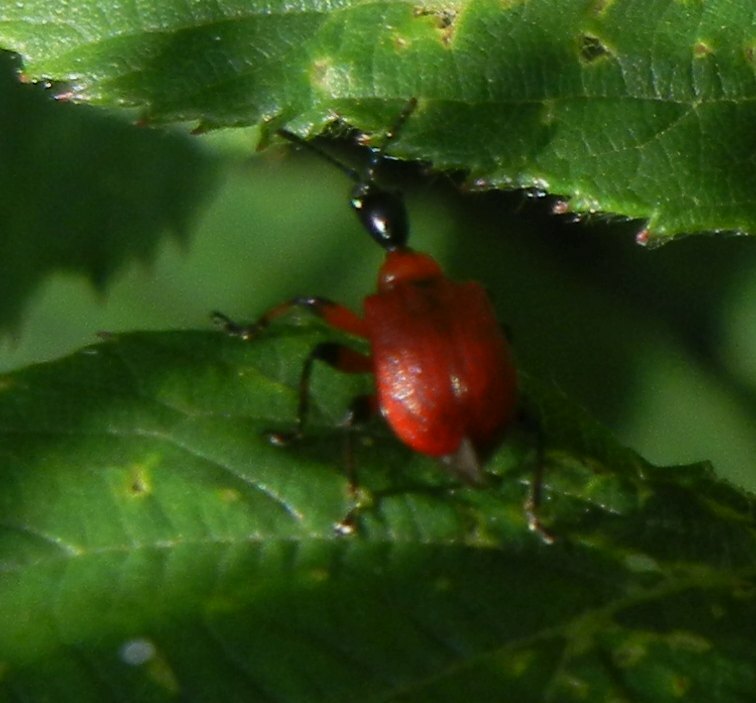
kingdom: Animalia
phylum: Arthropoda
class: Insecta
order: Coleoptera
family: Attelabidae
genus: Apoderus
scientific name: Apoderus coryli
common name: Hazel leaf roller
